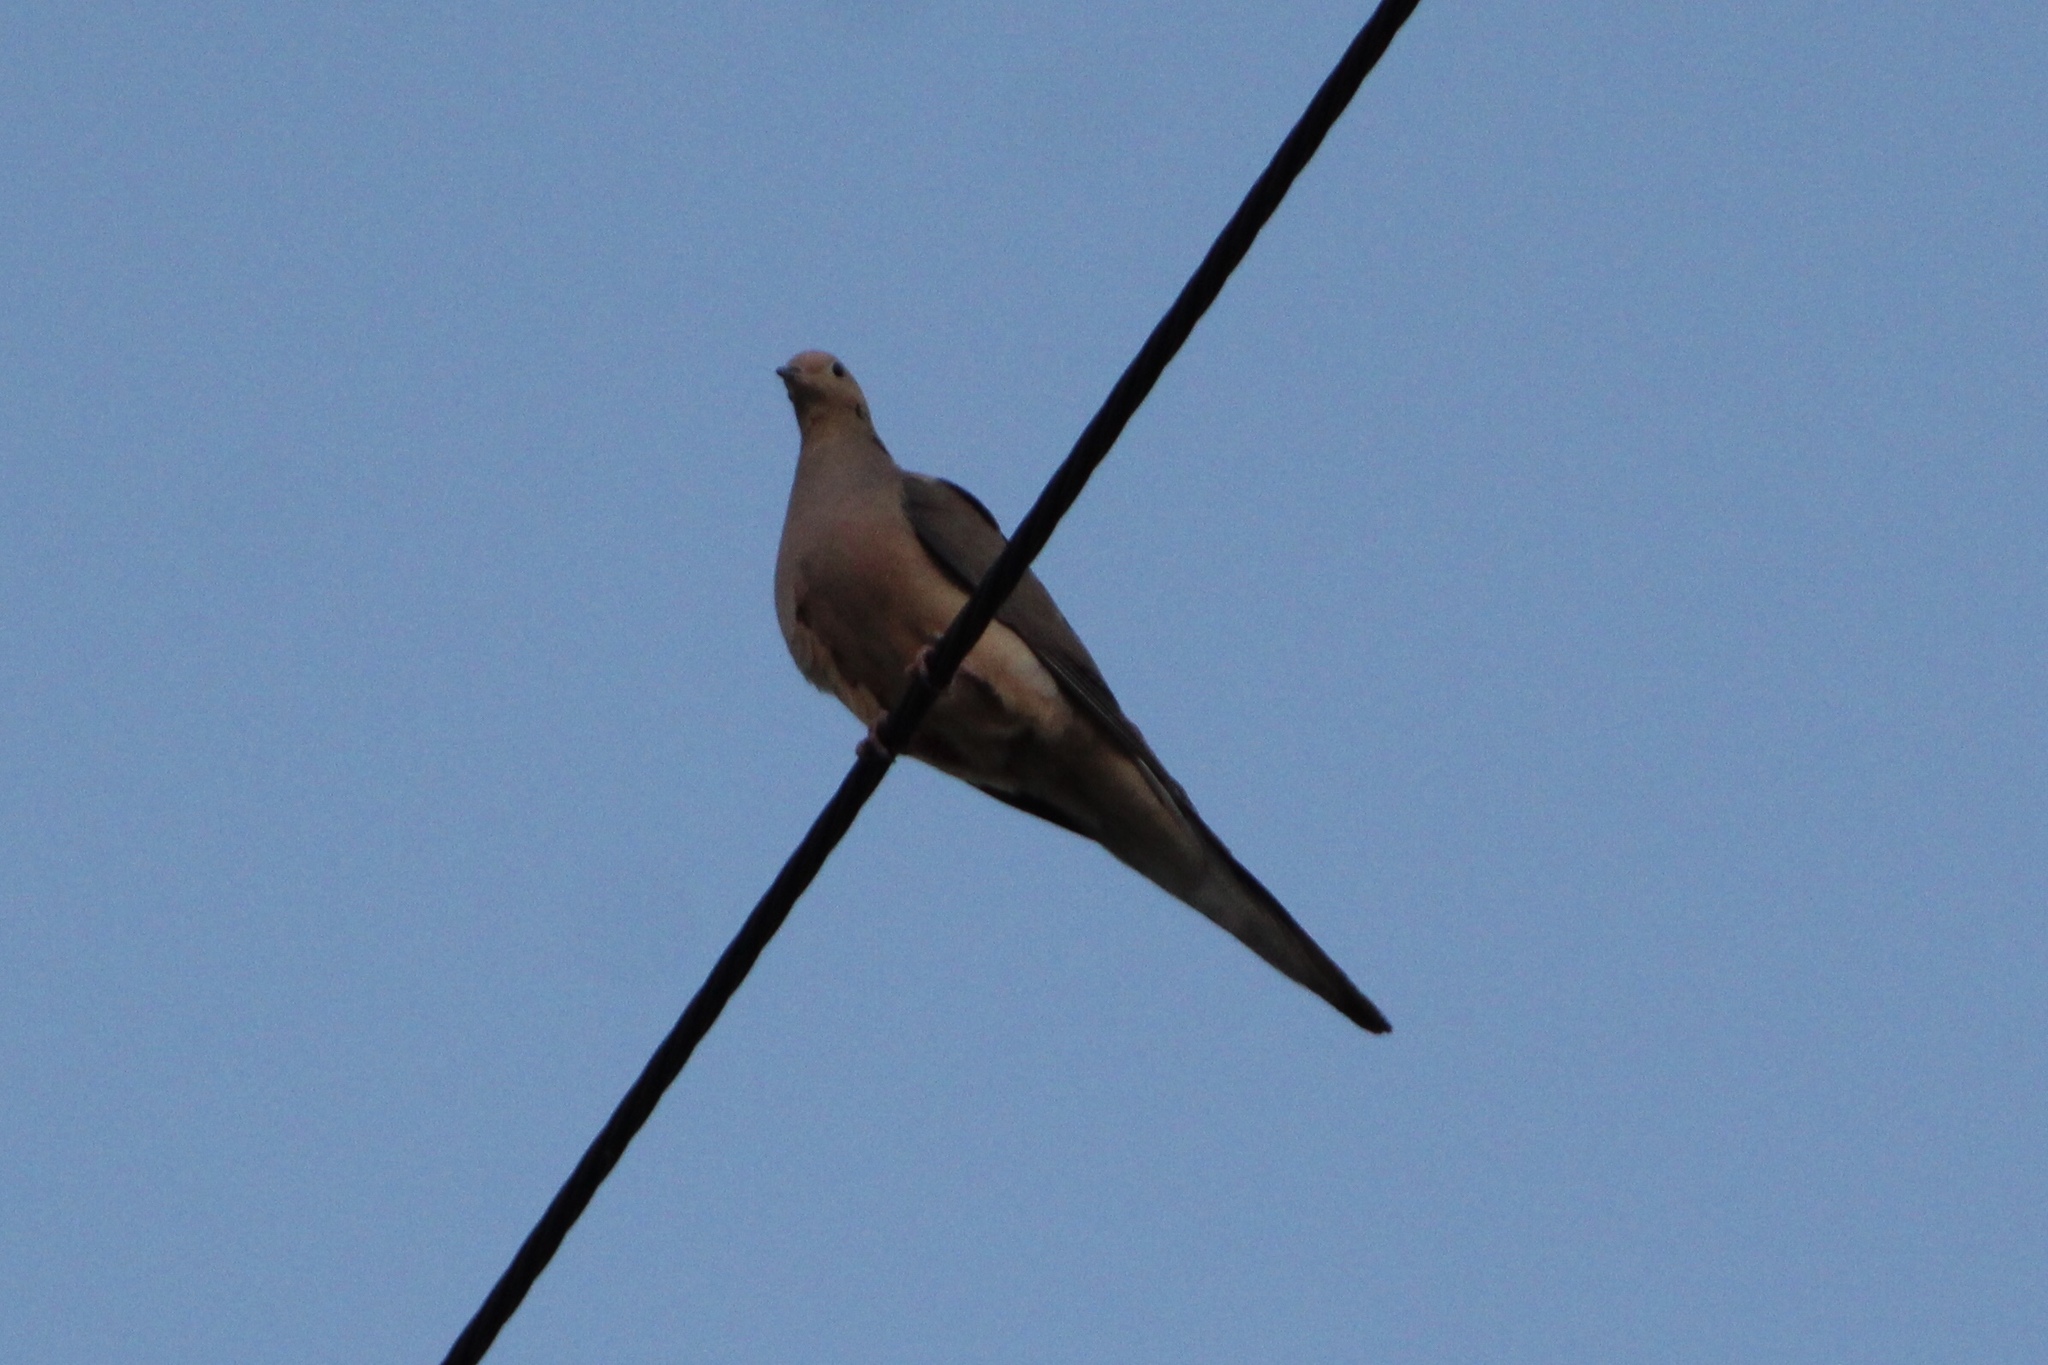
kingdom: Animalia
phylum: Chordata
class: Aves
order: Columbiformes
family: Columbidae
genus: Zenaida
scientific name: Zenaida macroura
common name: Mourning dove
